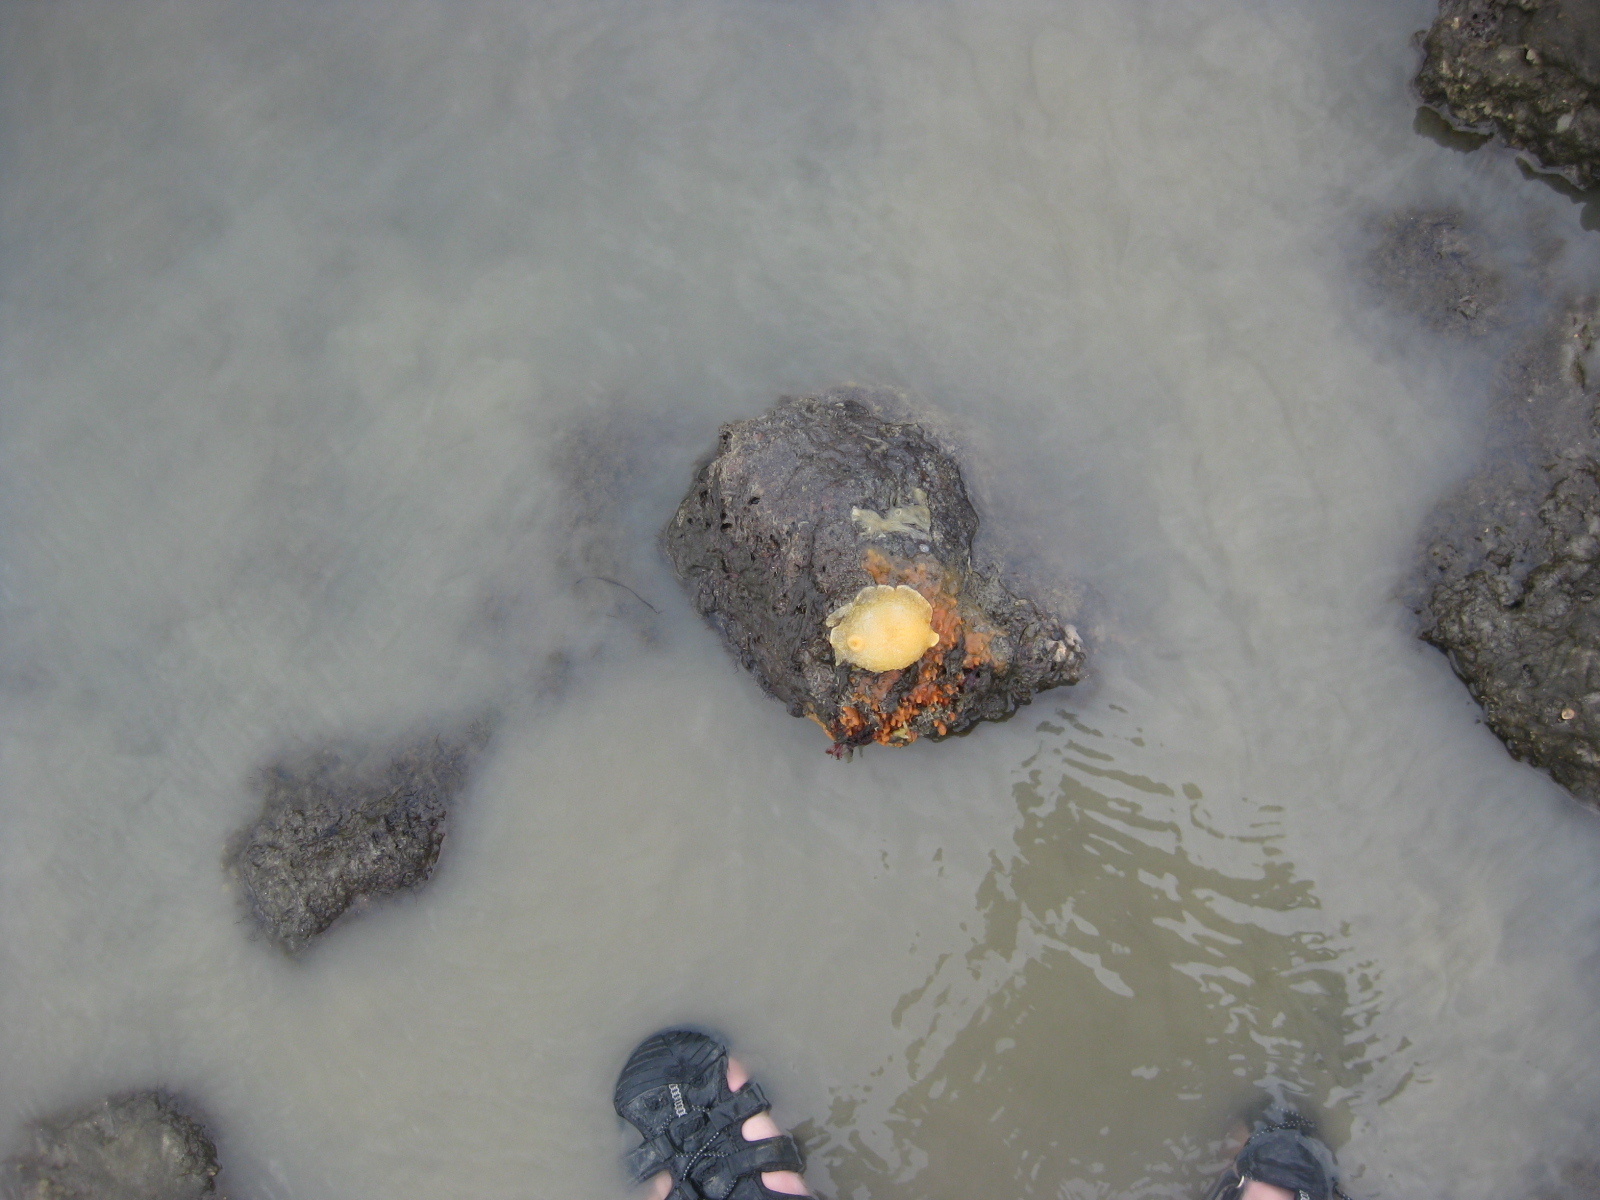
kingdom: Animalia
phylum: Mollusca
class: Gastropoda
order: Nudibranchia
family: Dendrodorididae
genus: Dendrodoris
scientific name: Dendrodoris citrina
